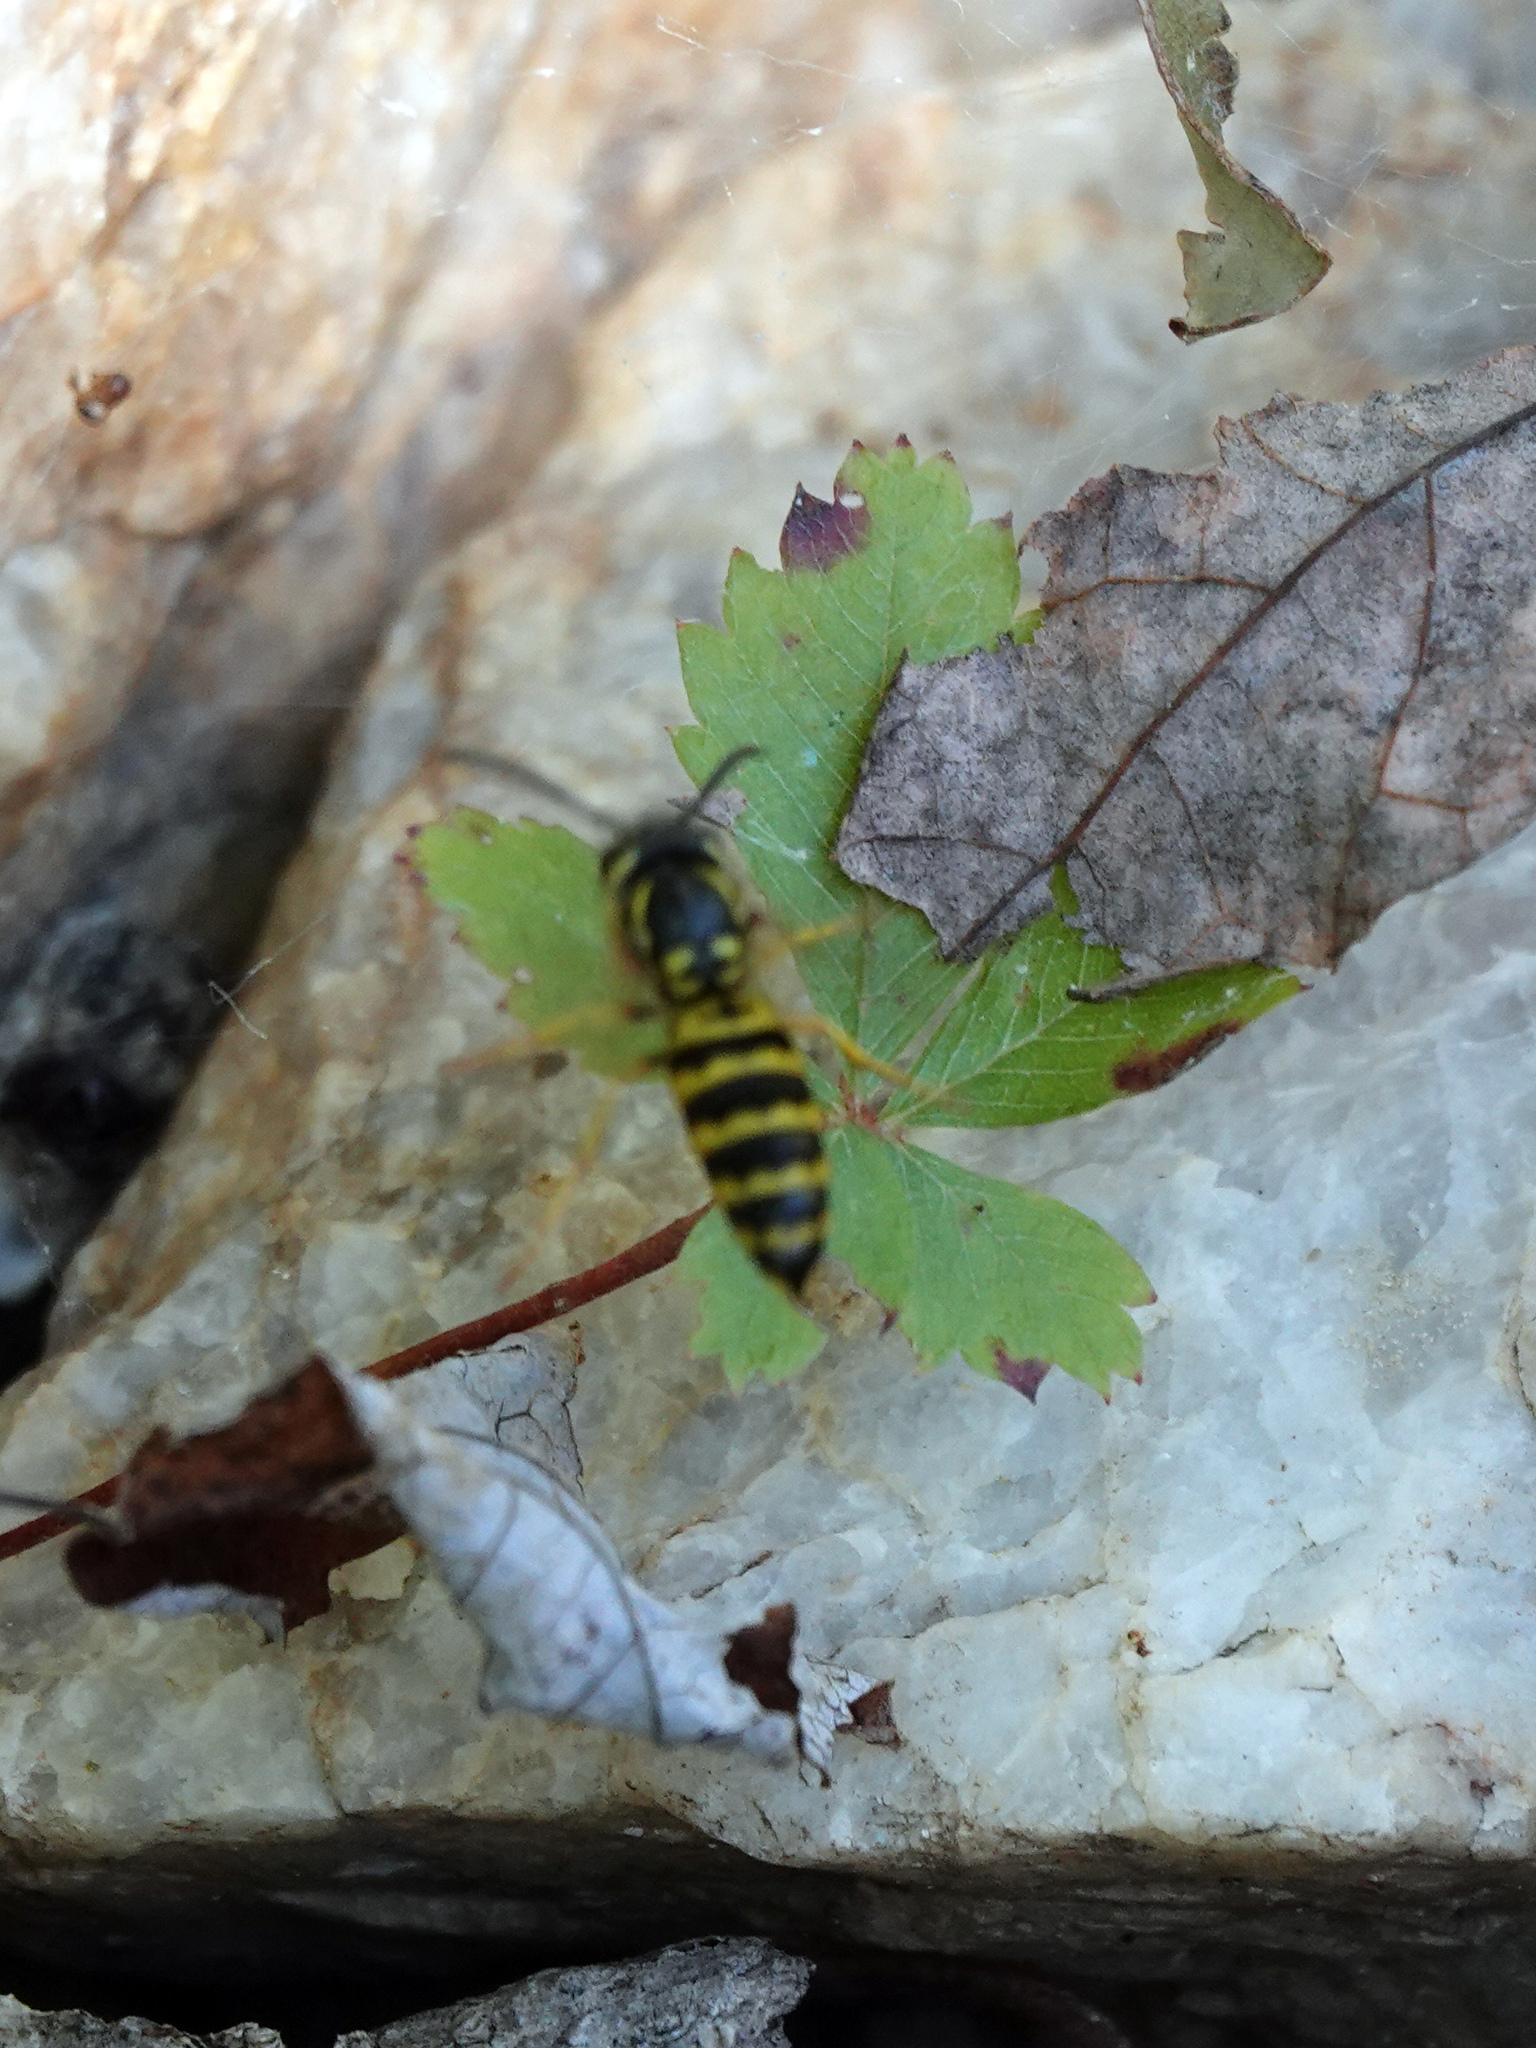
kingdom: Animalia
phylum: Arthropoda
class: Insecta
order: Hymenoptera
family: Vespidae
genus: Vespula
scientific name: Vespula maculifrons
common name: Eastern yellowjacket
